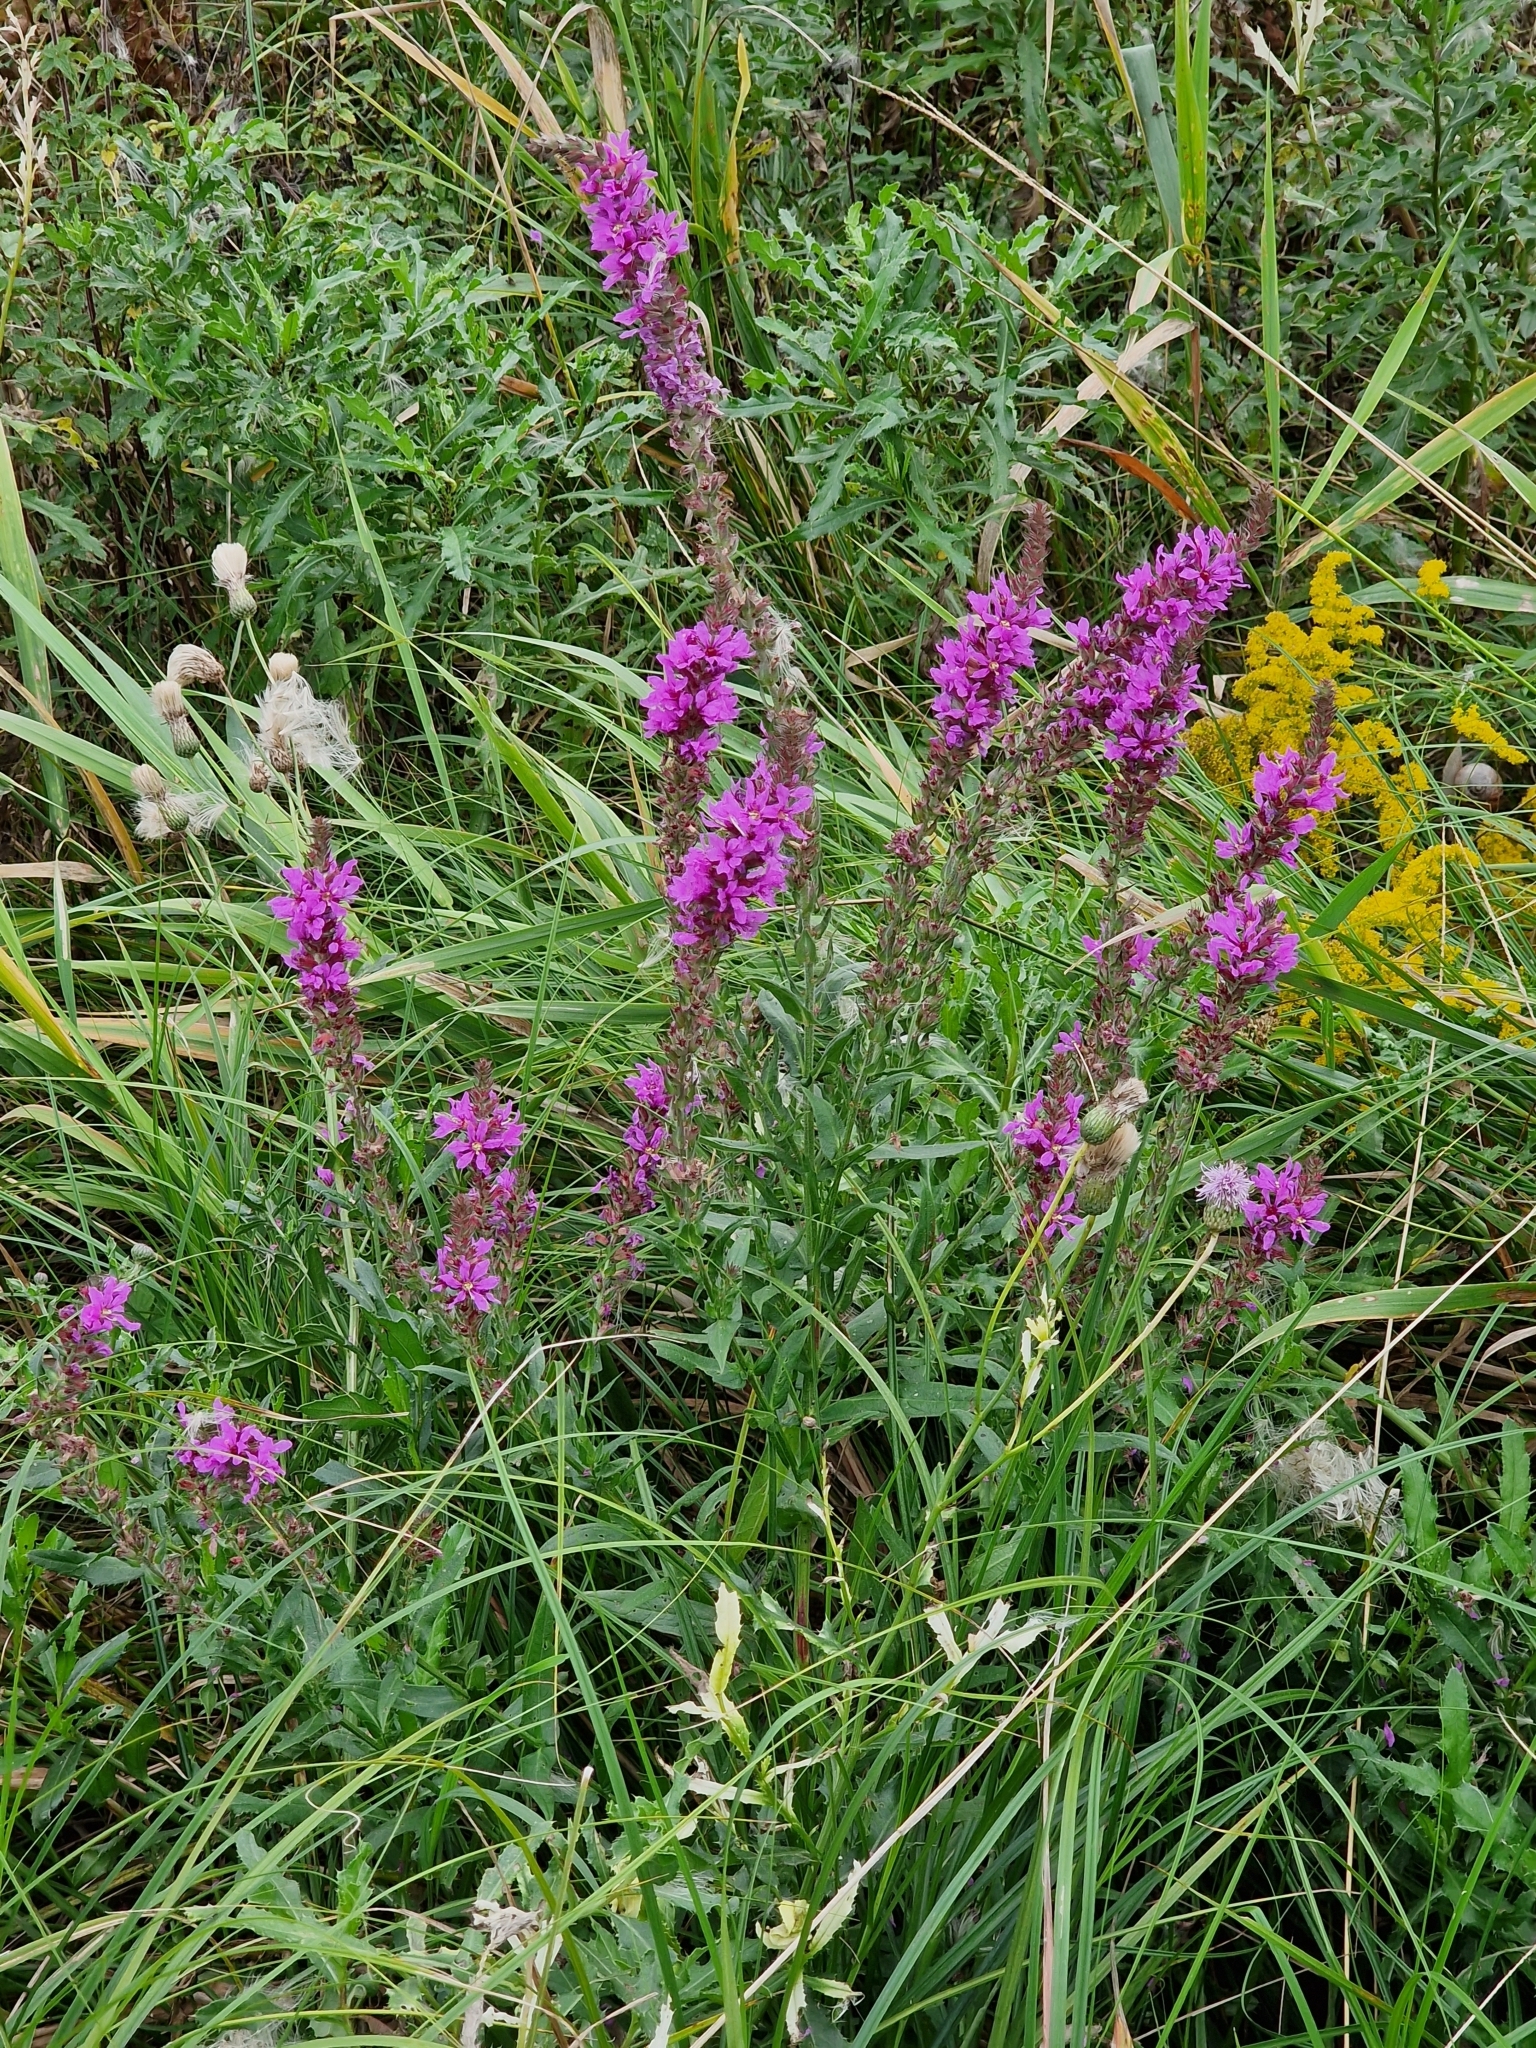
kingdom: Plantae
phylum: Tracheophyta
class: Magnoliopsida
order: Myrtales
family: Lythraceae
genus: Lythrum
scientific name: Lythrum salicaria
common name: Purple loosestrife
